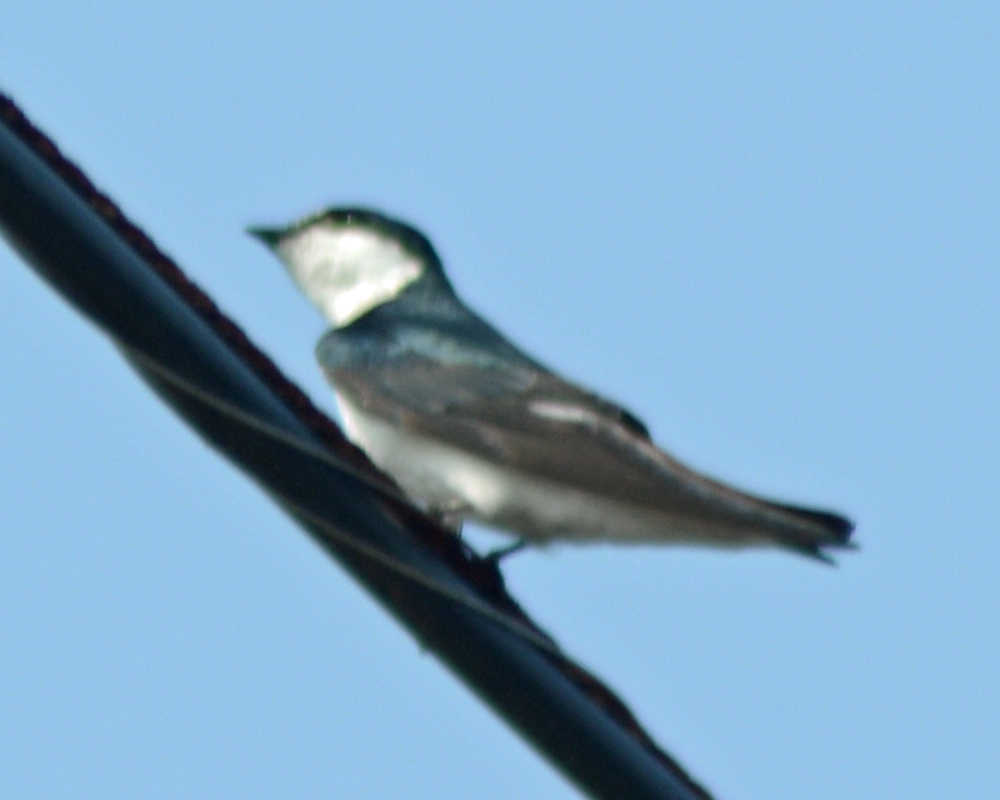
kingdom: Animalia
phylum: Chordata
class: Aves
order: Passeriformes
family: Hirundinidae
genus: Tachycineta
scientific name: Tachycineta albilinea
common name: Mangrove swallow
